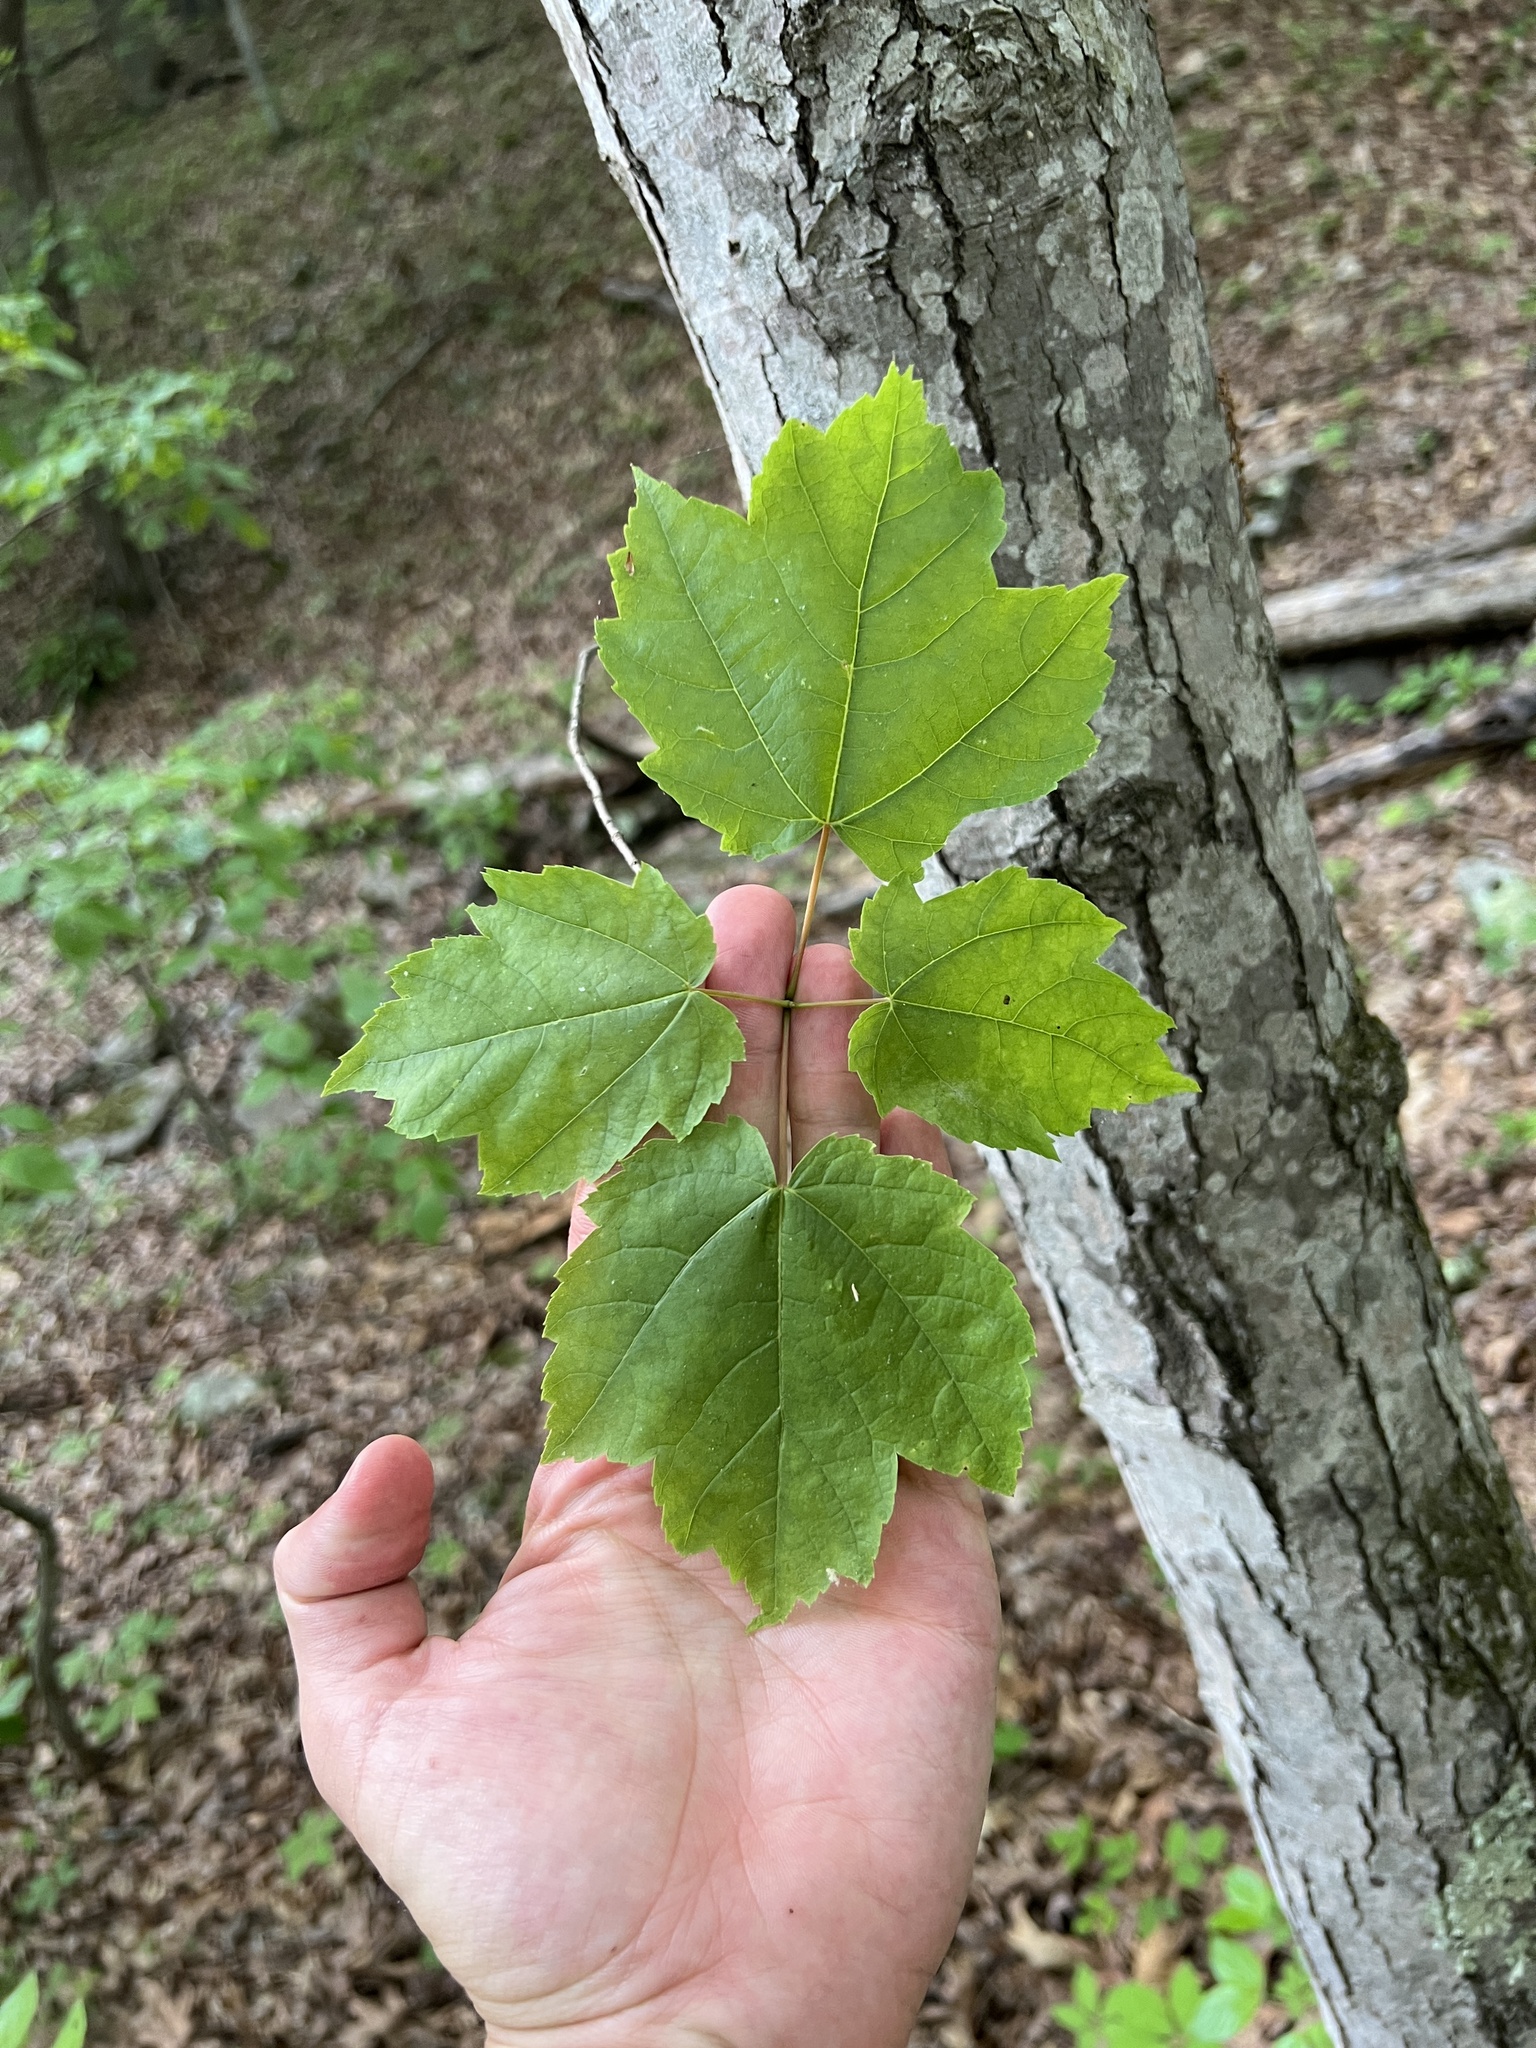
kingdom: Plantae
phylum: Tracheophyta
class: Magnoliopsida
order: Sapindales
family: Sapindaceae
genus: Acer
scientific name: Acer rubrum
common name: Red maple
